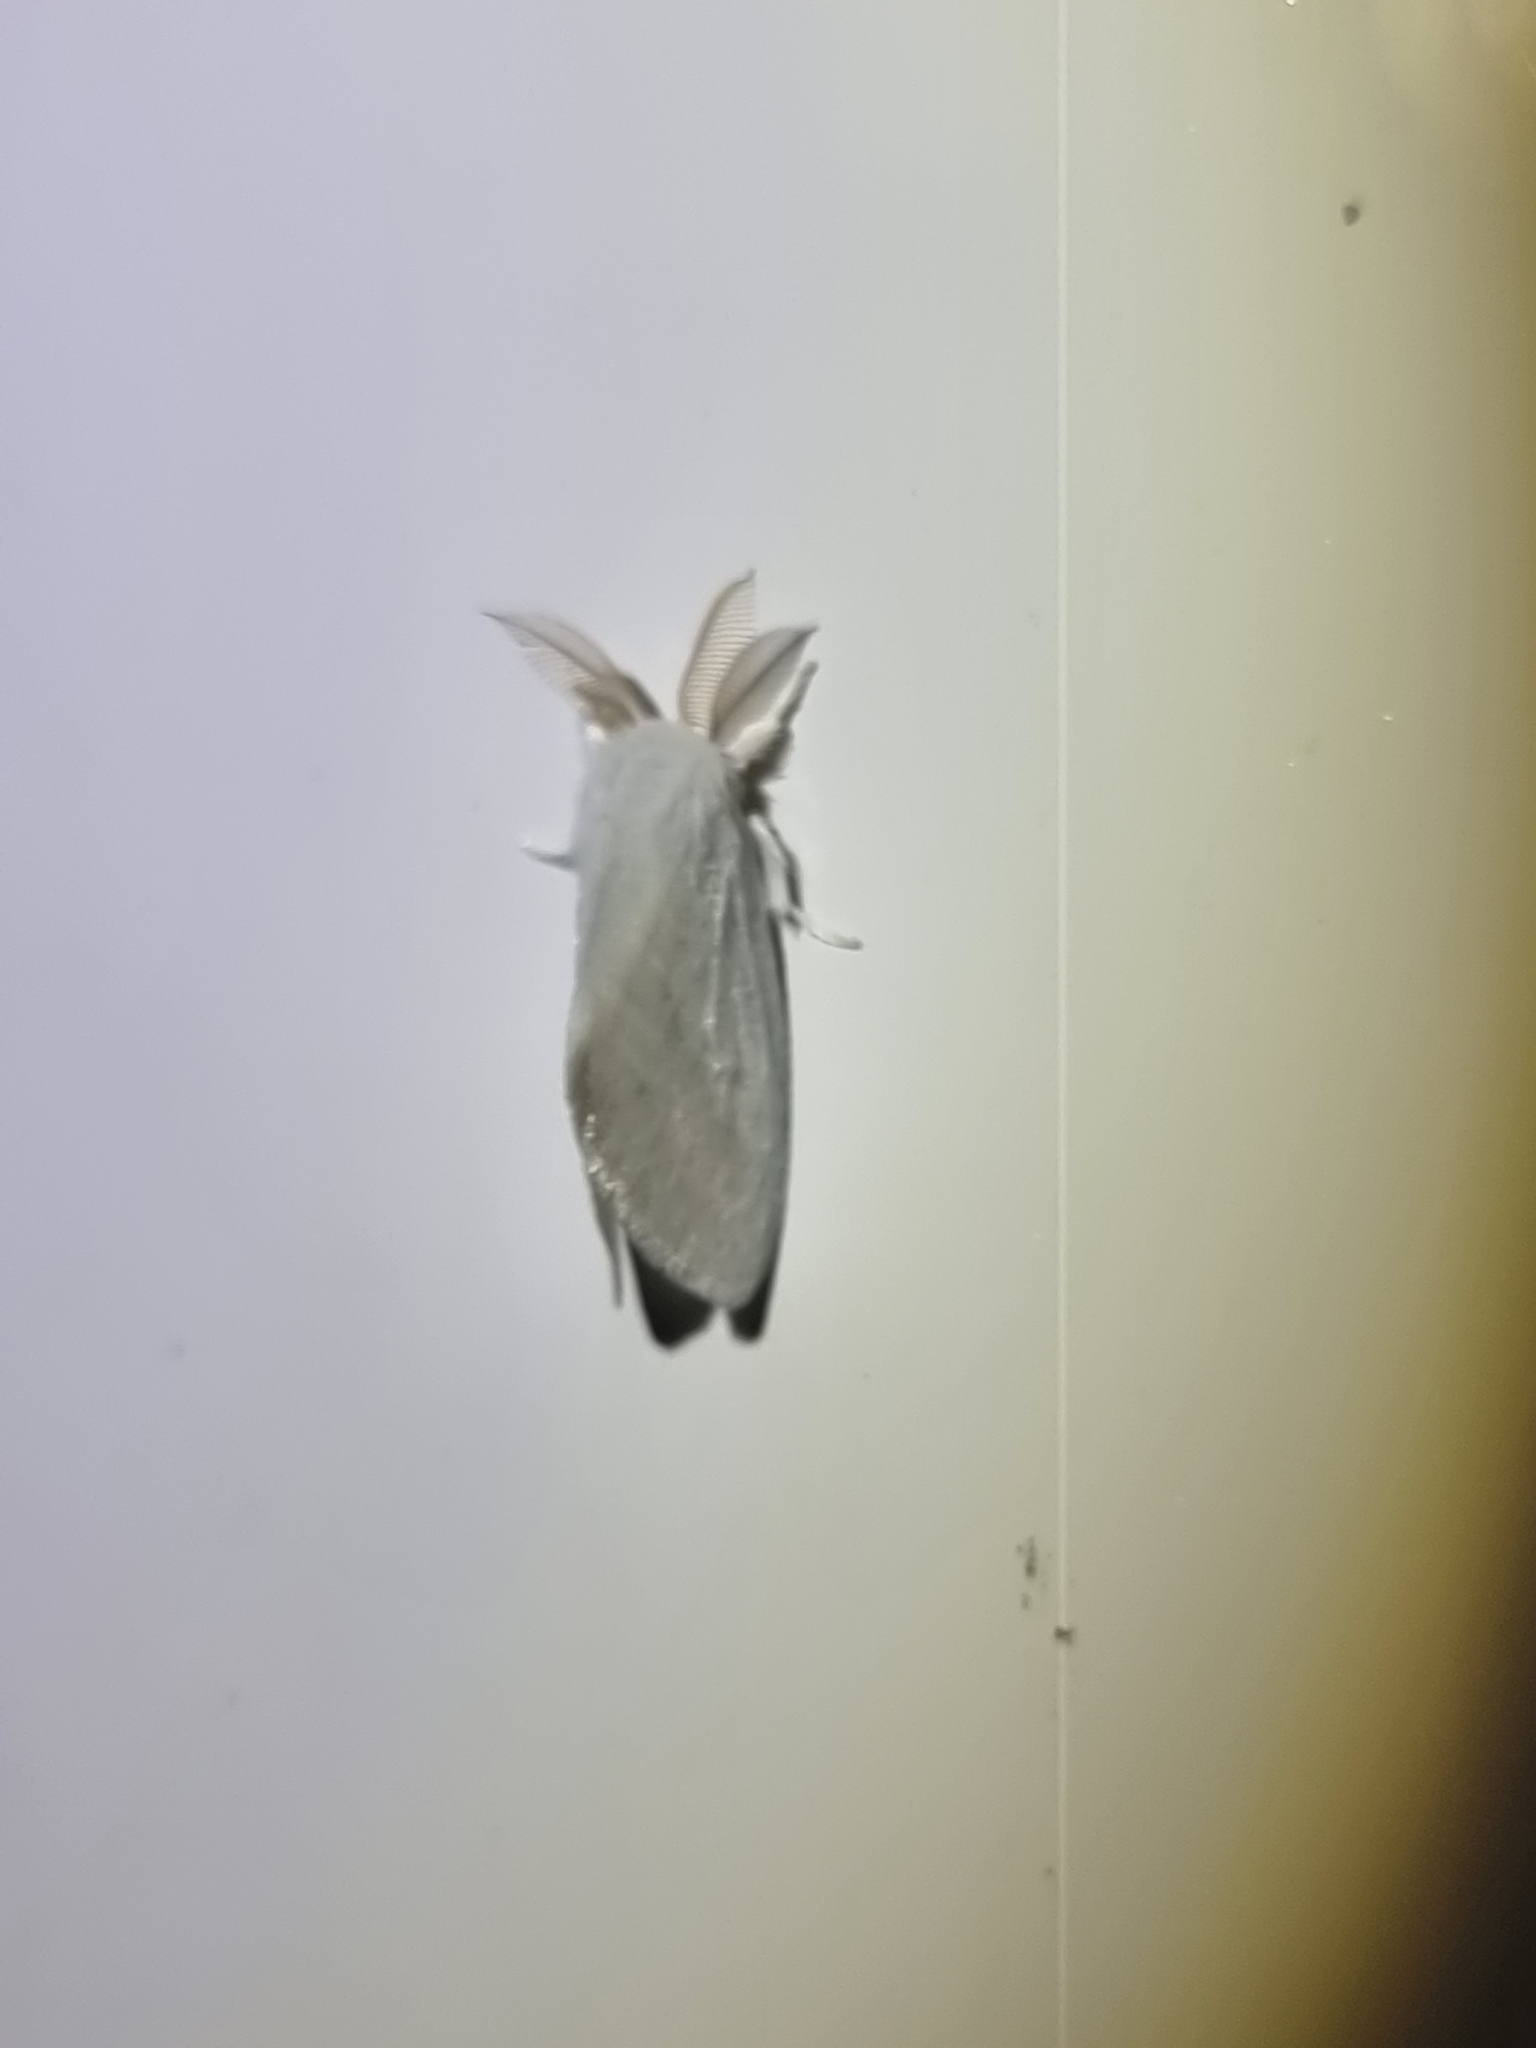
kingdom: Animalia
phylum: Arthropoda
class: Insecta
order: Lepidoptera
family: Erebidae
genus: Euzora
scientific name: Euzora collucens
